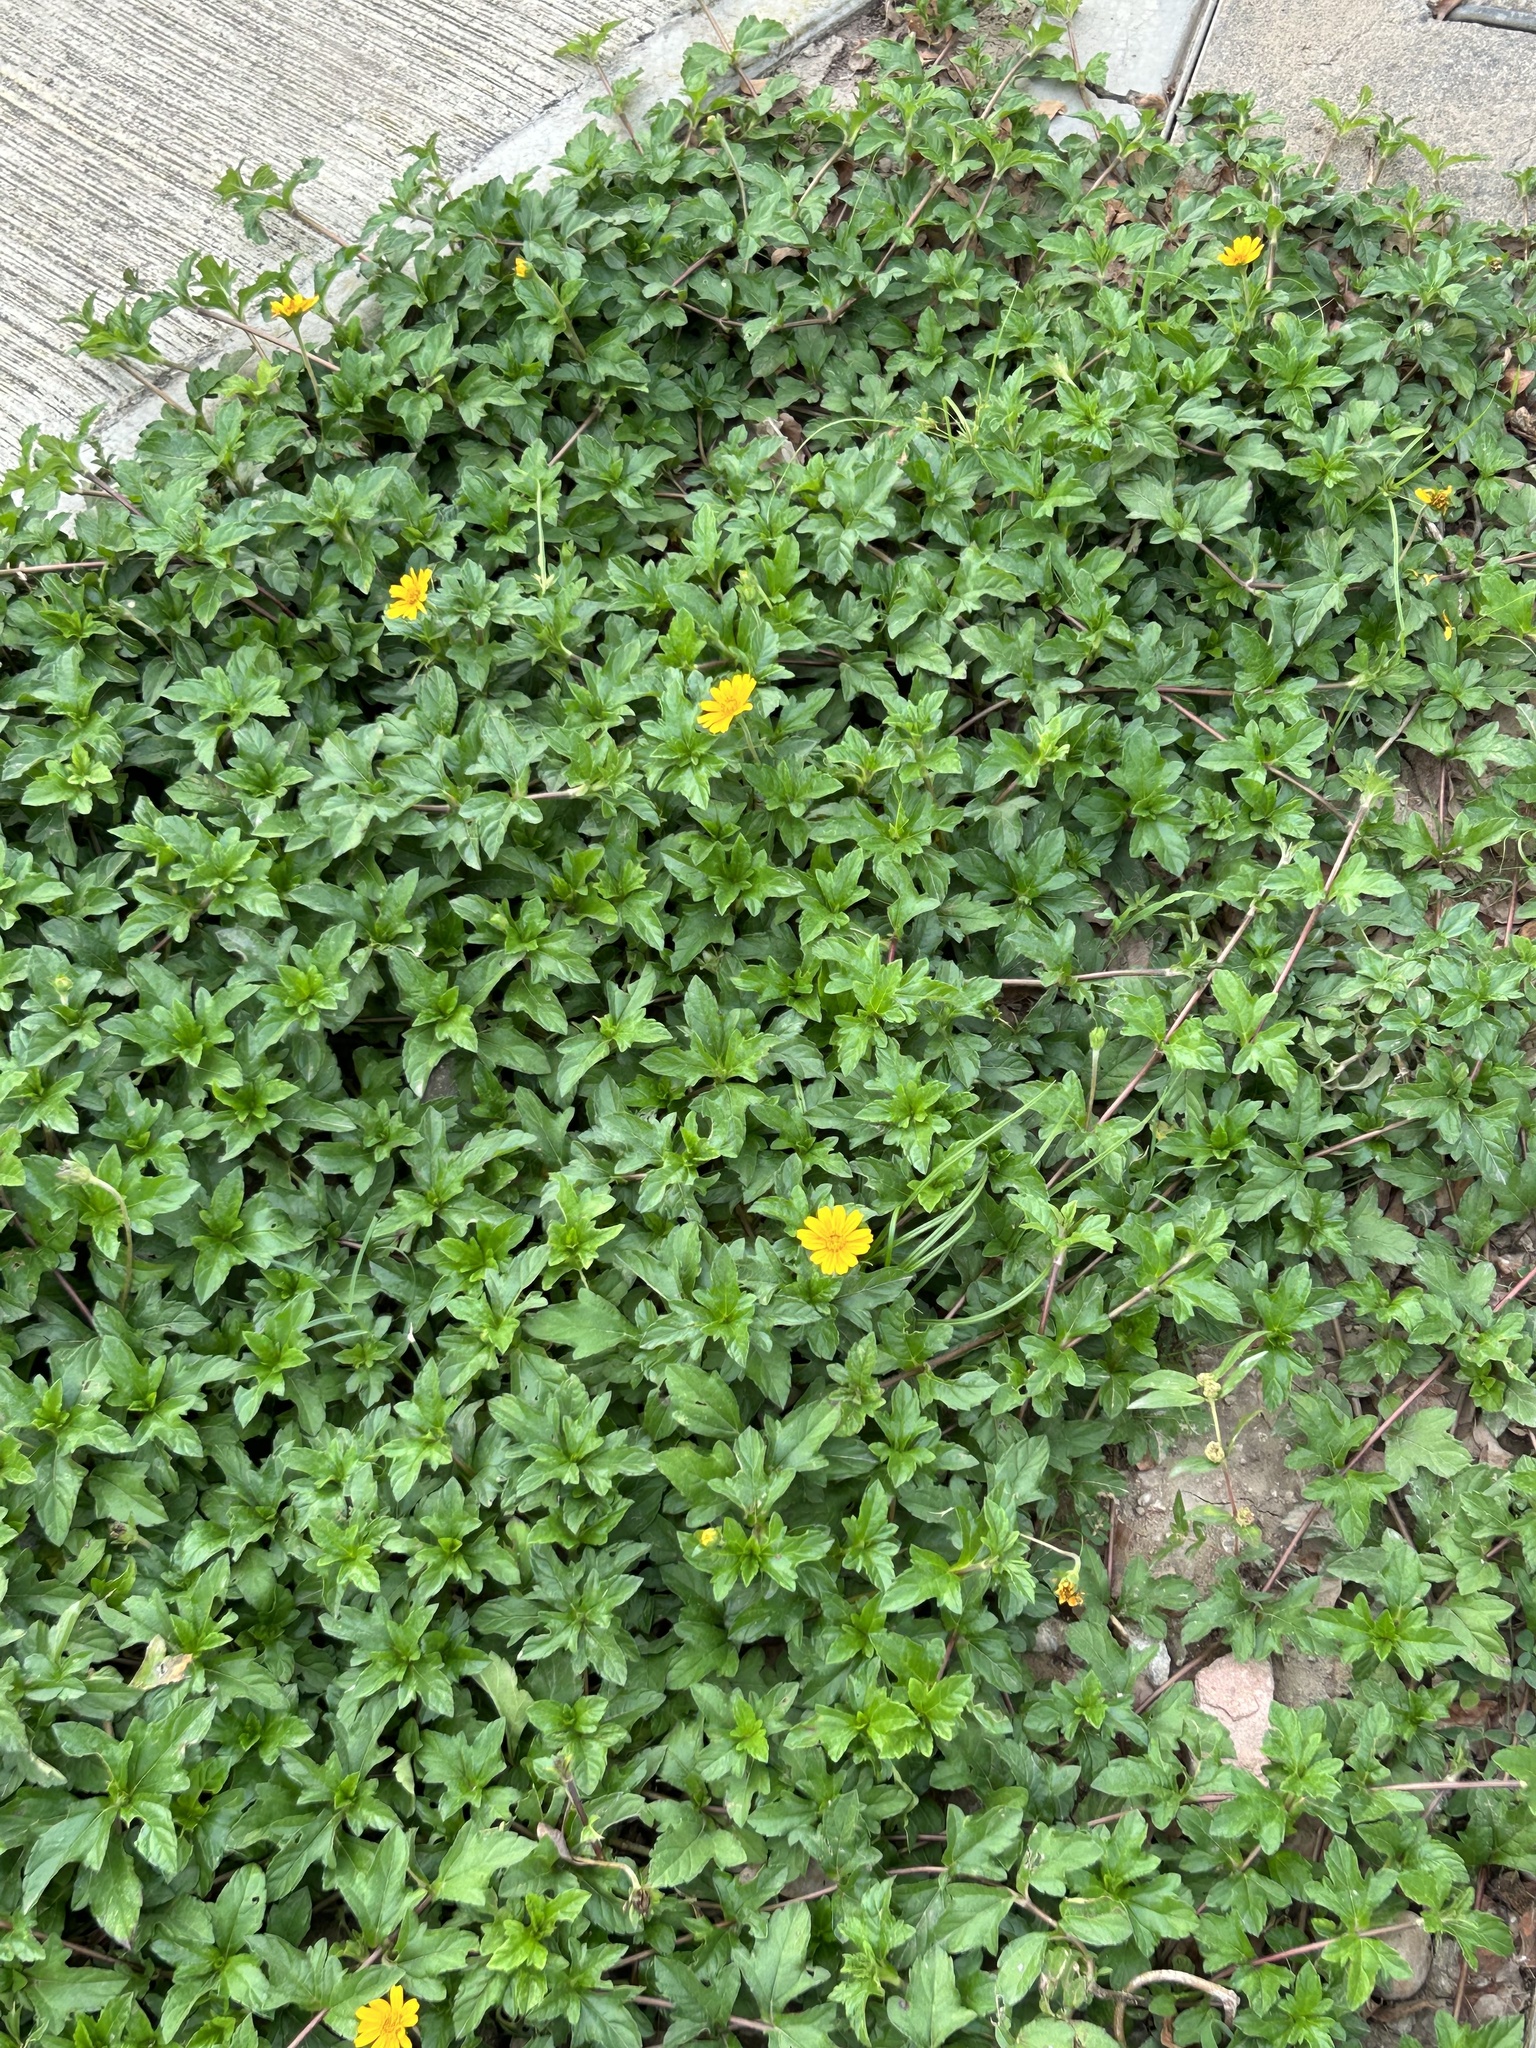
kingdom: Plantae
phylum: Tracheophyta
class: Magnoliopsida
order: Asterales
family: Asteraceae
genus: Sphagneticola
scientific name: Sphagneticola trilobata
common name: Bay biscayne creeping-oxeye
